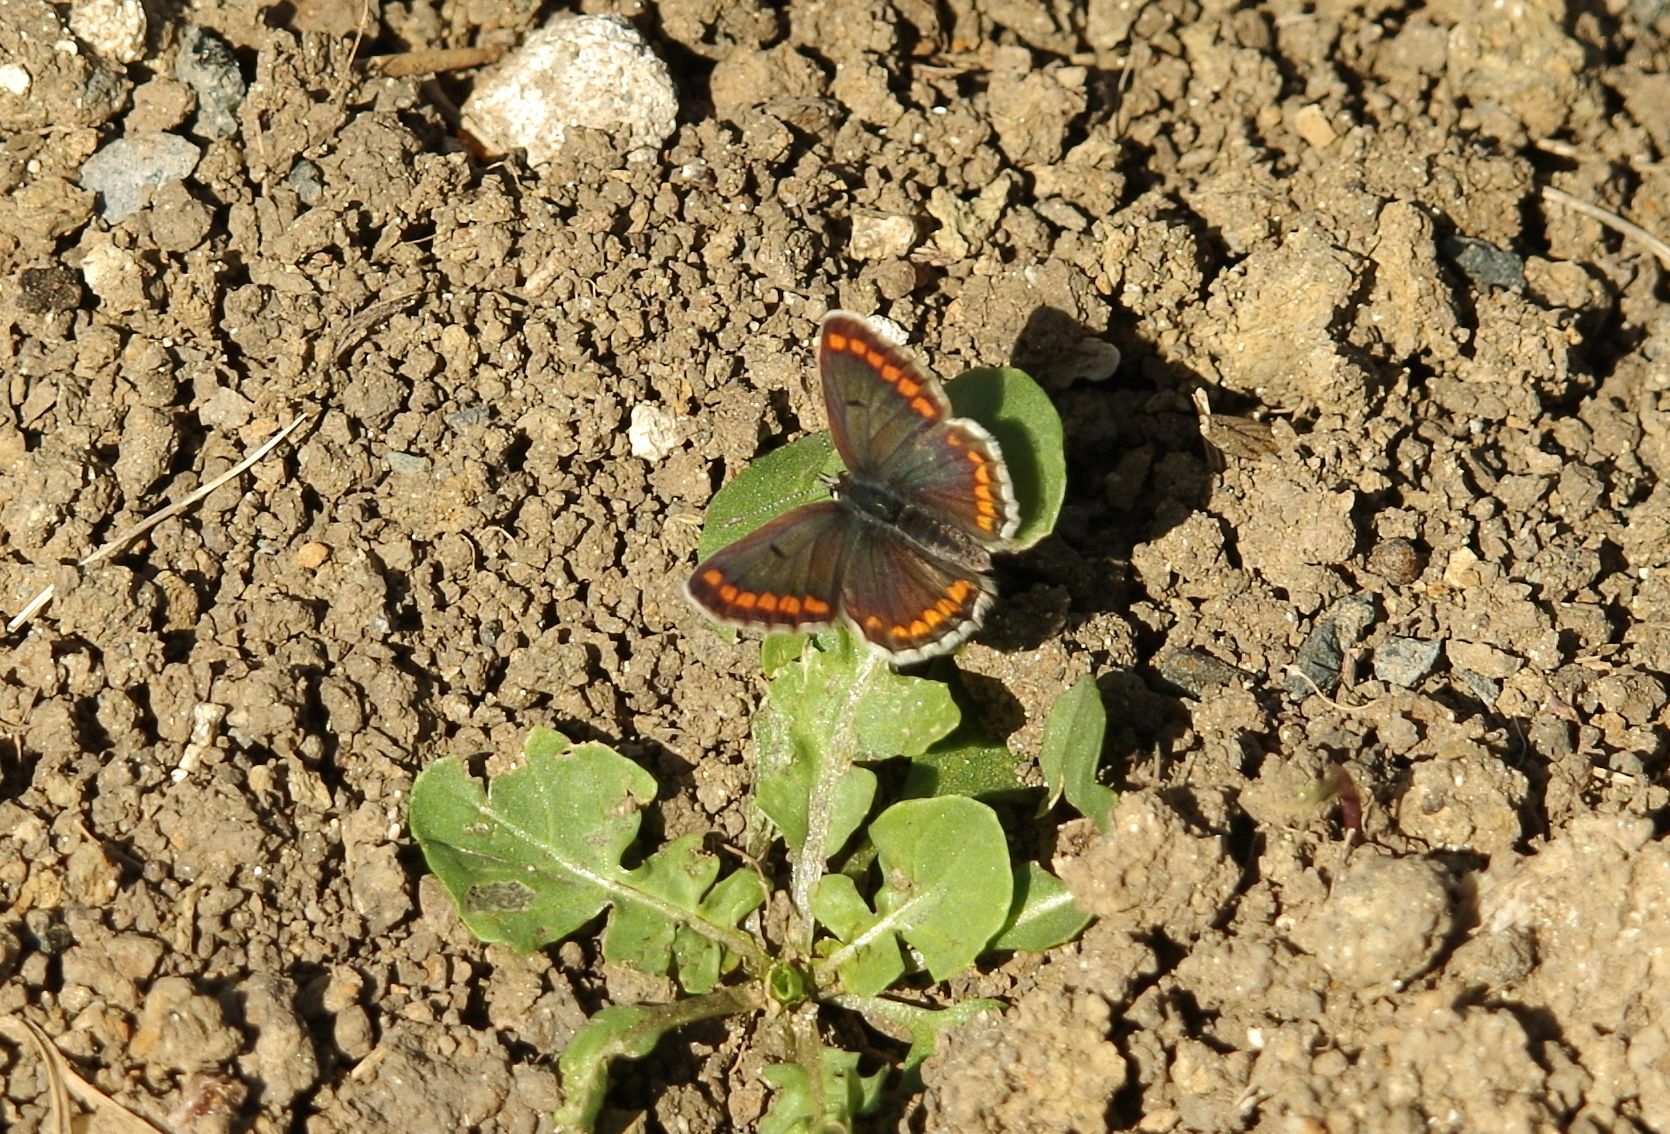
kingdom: Animalia
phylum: Arthropoda
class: Insecta
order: Lepidoptera
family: Lycaenidae
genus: Aricia
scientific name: Aricia agestis
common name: Brown argus
